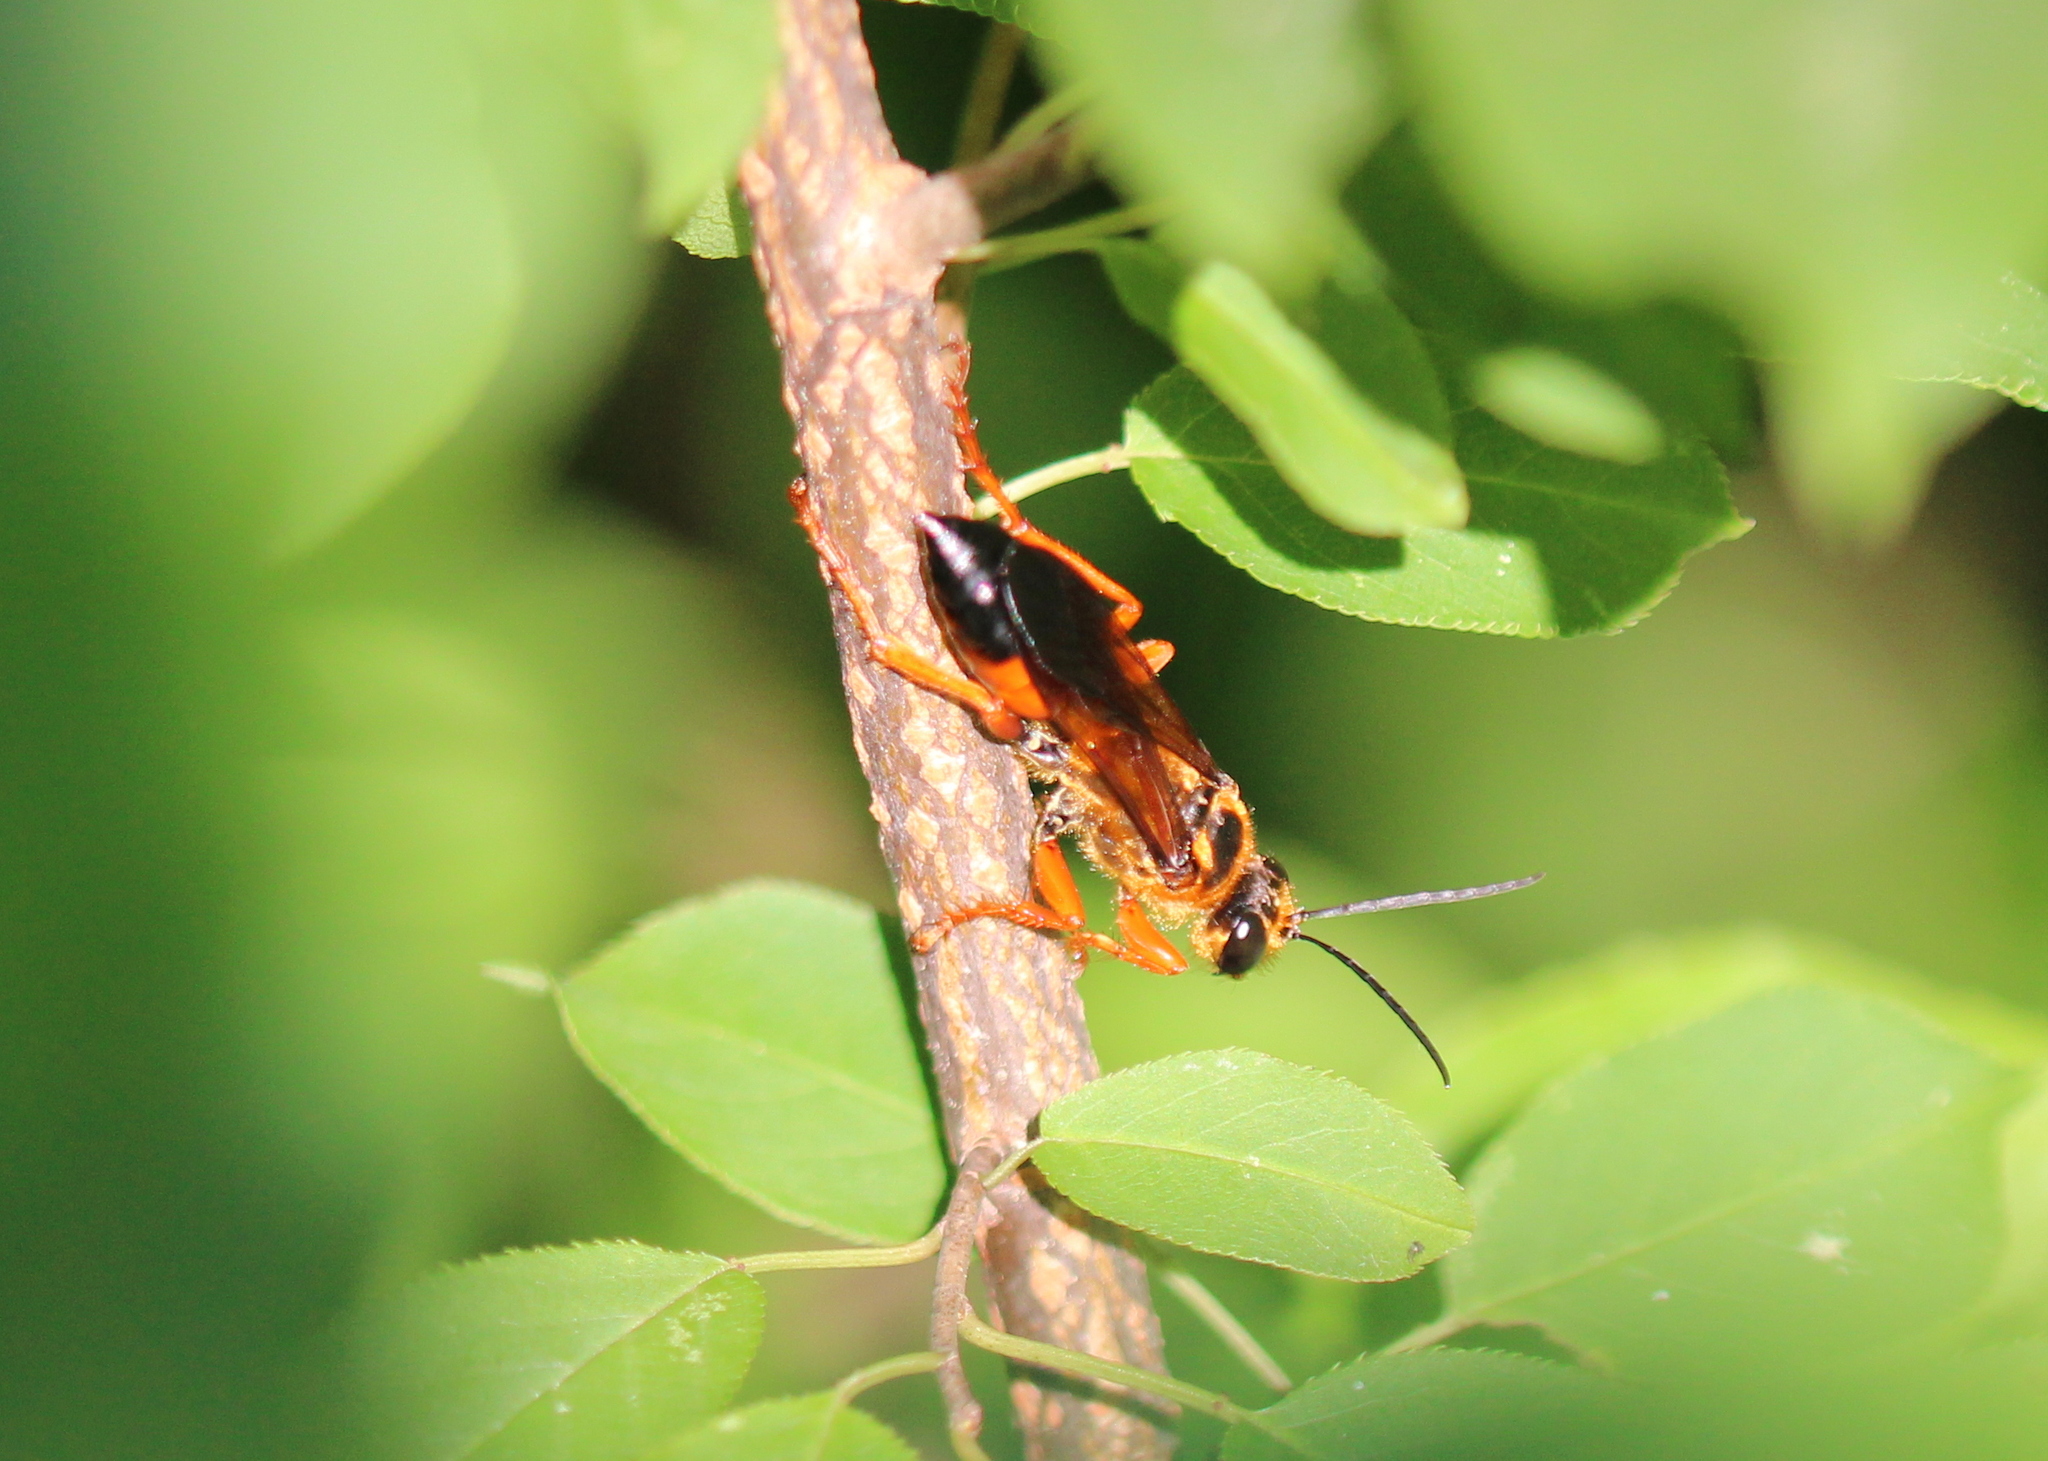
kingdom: Animalia
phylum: Arthropoda
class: Insecta
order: Hymenoptera
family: Sphecidae
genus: Sphex
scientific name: Sphex ichneumoneus
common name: Great golden digger wasp
